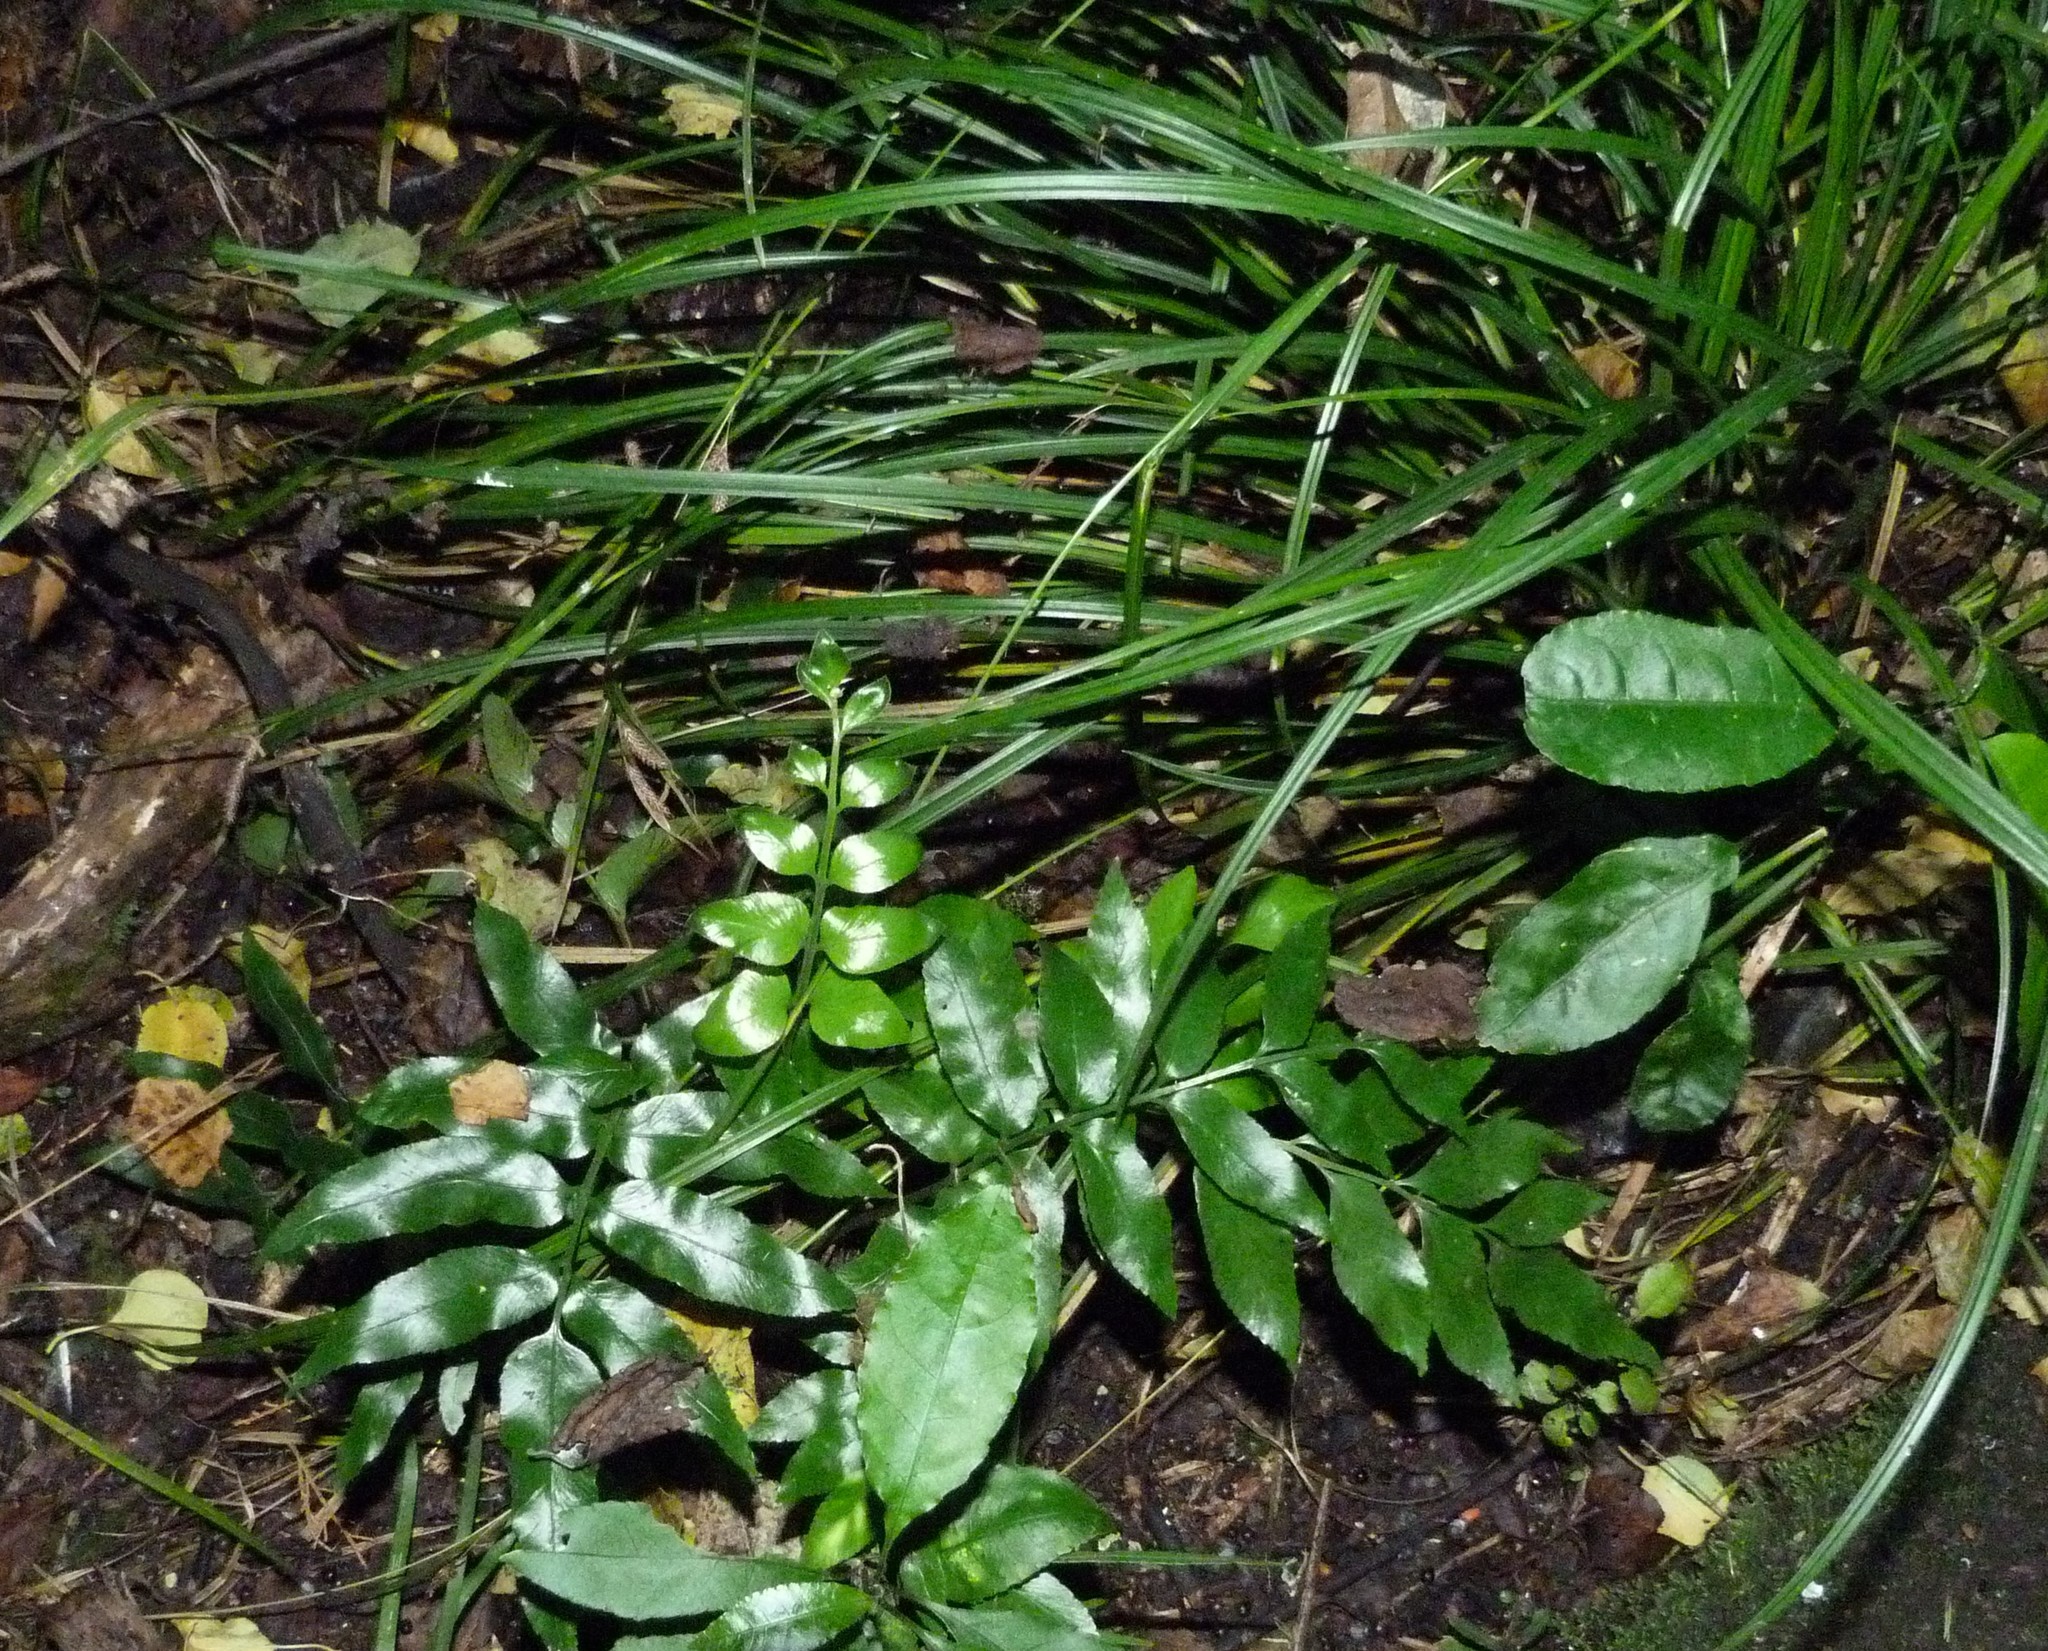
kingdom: Plantae
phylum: Tracheophyta
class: Polypodiopsida
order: Polypodiales
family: Aspleniaceae
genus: Asplenium
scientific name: Asplenium oblongifolium
